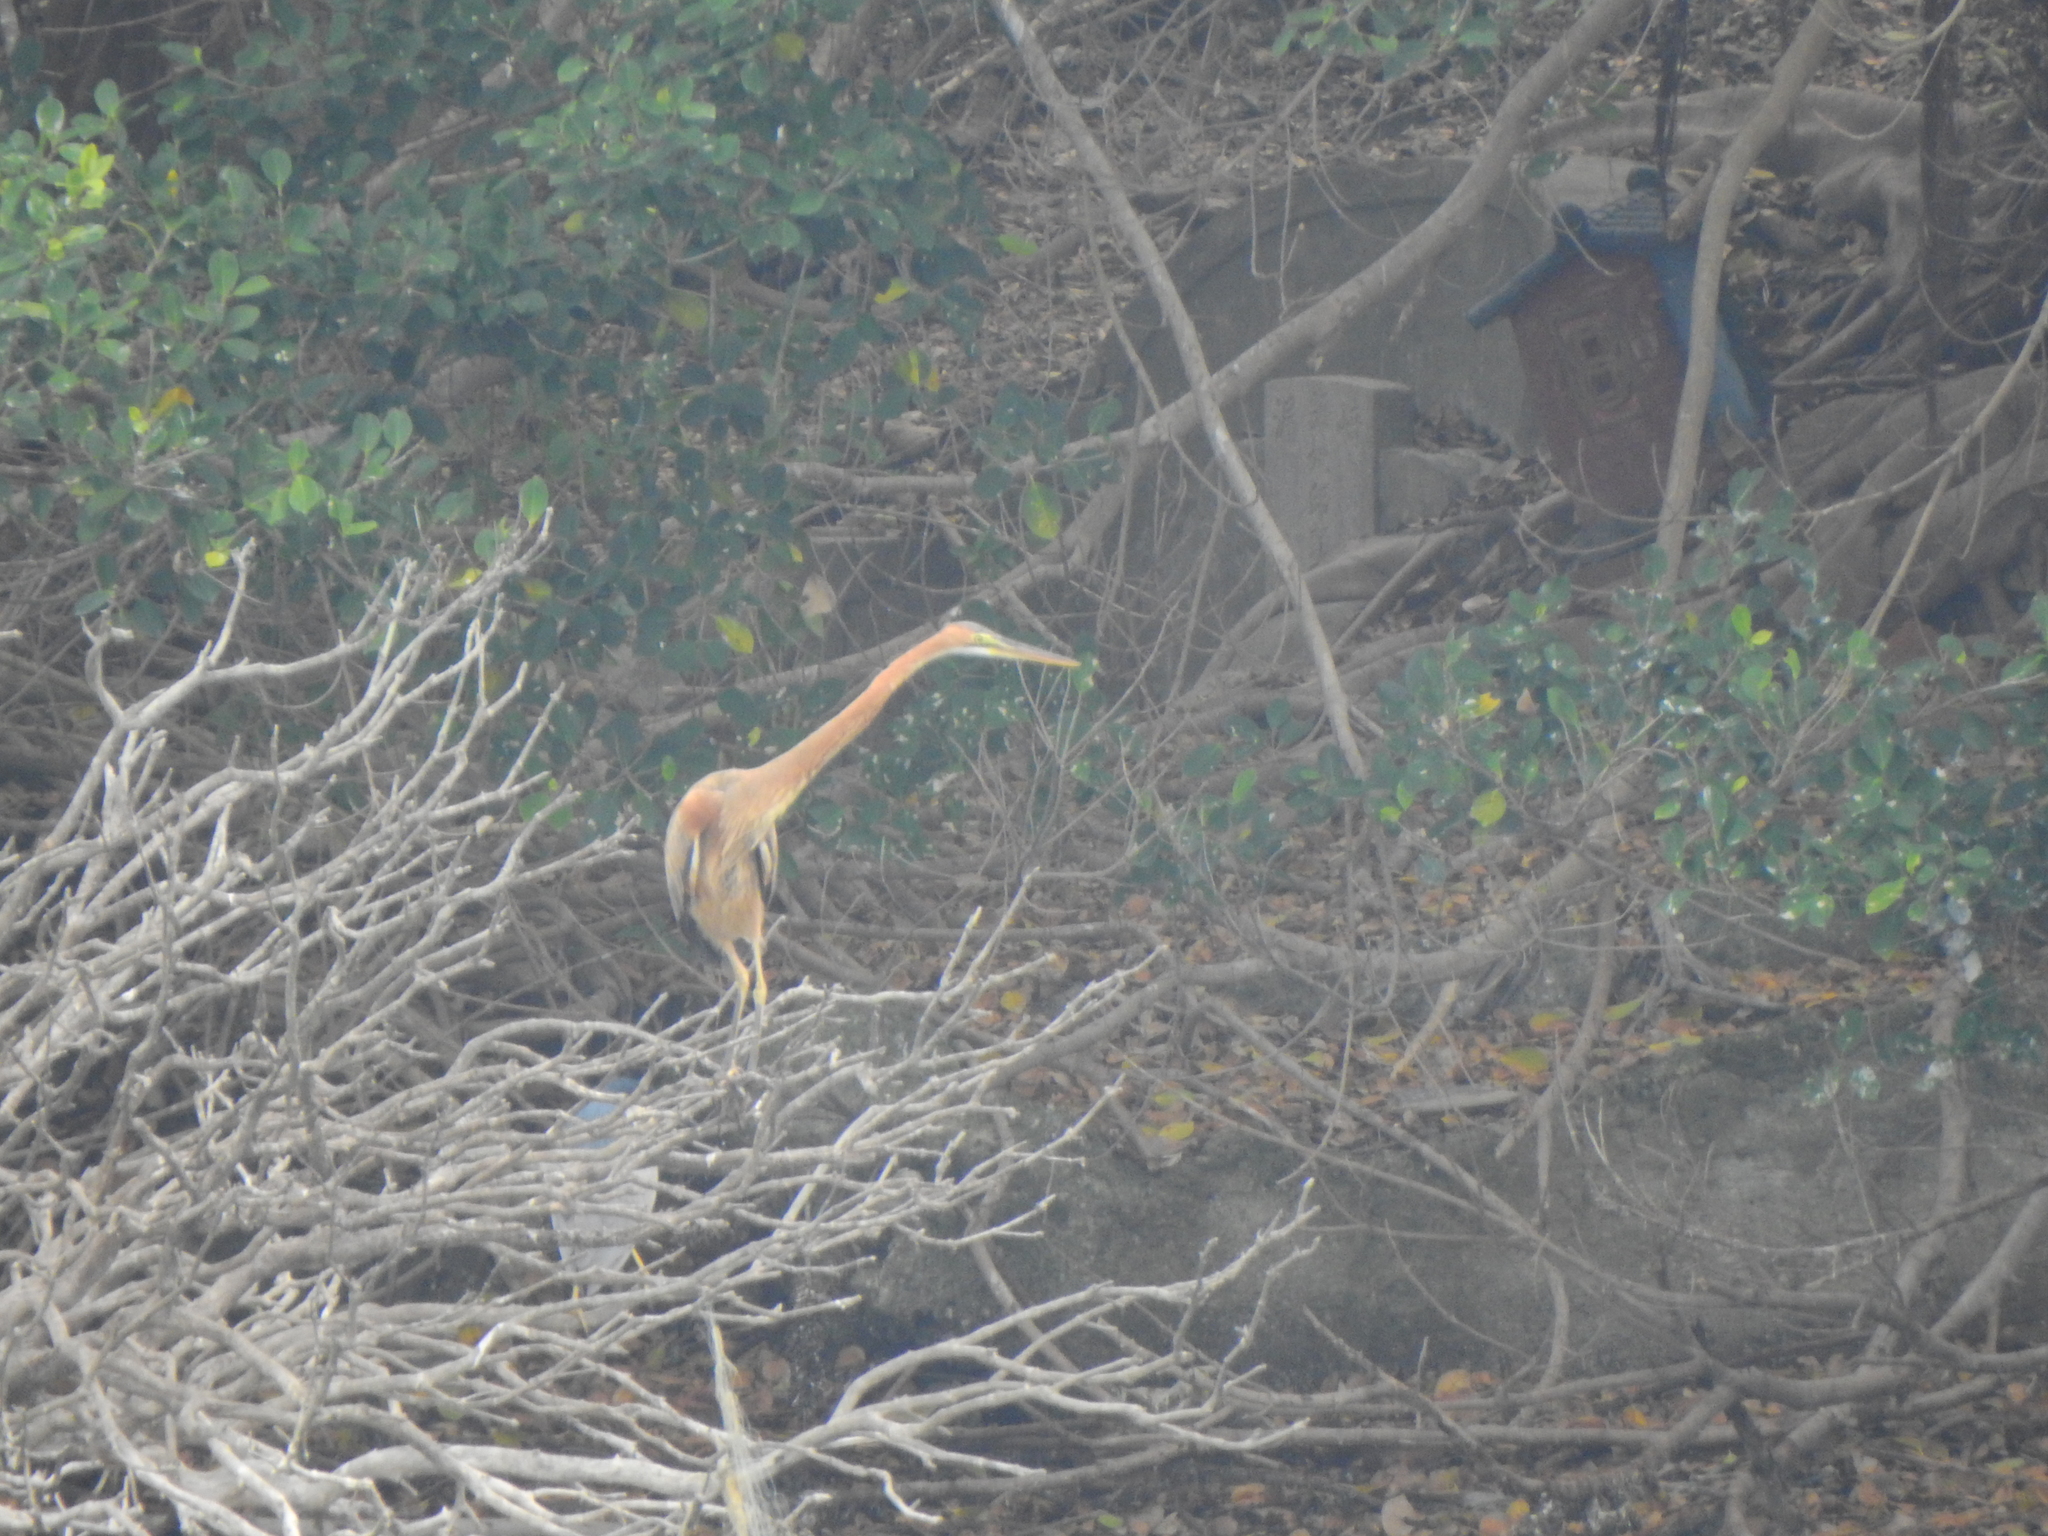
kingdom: Animalia
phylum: Chordata
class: Aves
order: Pelecaniformes
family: Ardeidae
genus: Ardea
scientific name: Ardea purpurea
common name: Purple heron
